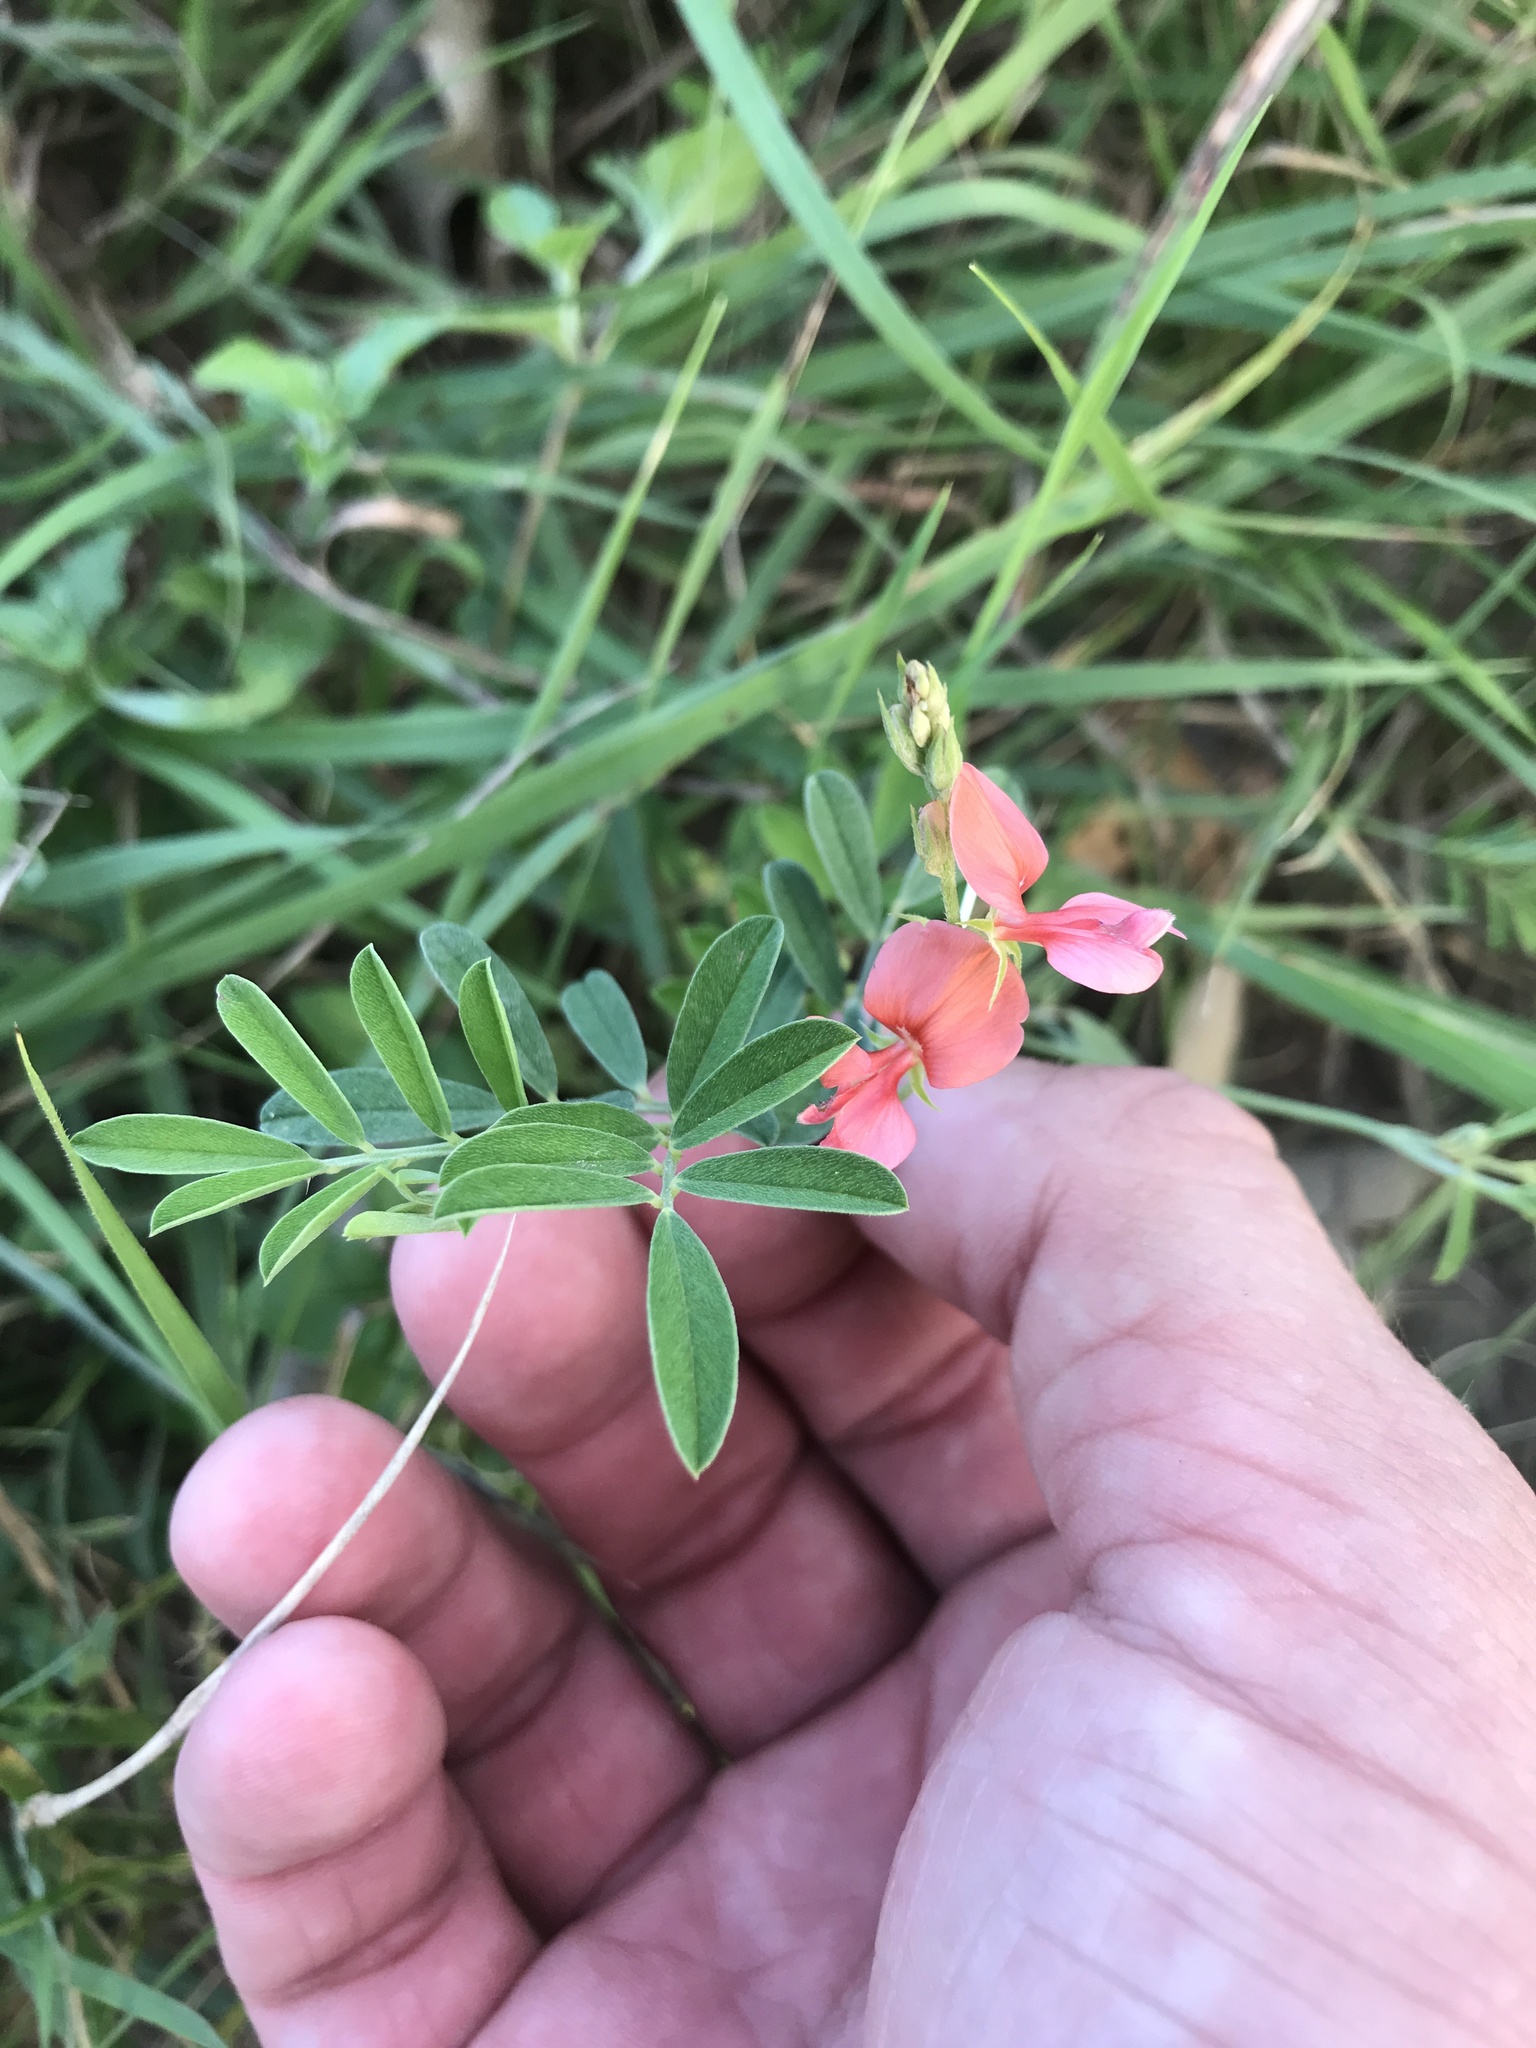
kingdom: Plantae
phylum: Tracheophyta
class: Magnoliopsida
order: Fabales
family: Fabaceae
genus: Indigofera
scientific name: Indigofera miniata
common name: Coast indigo
